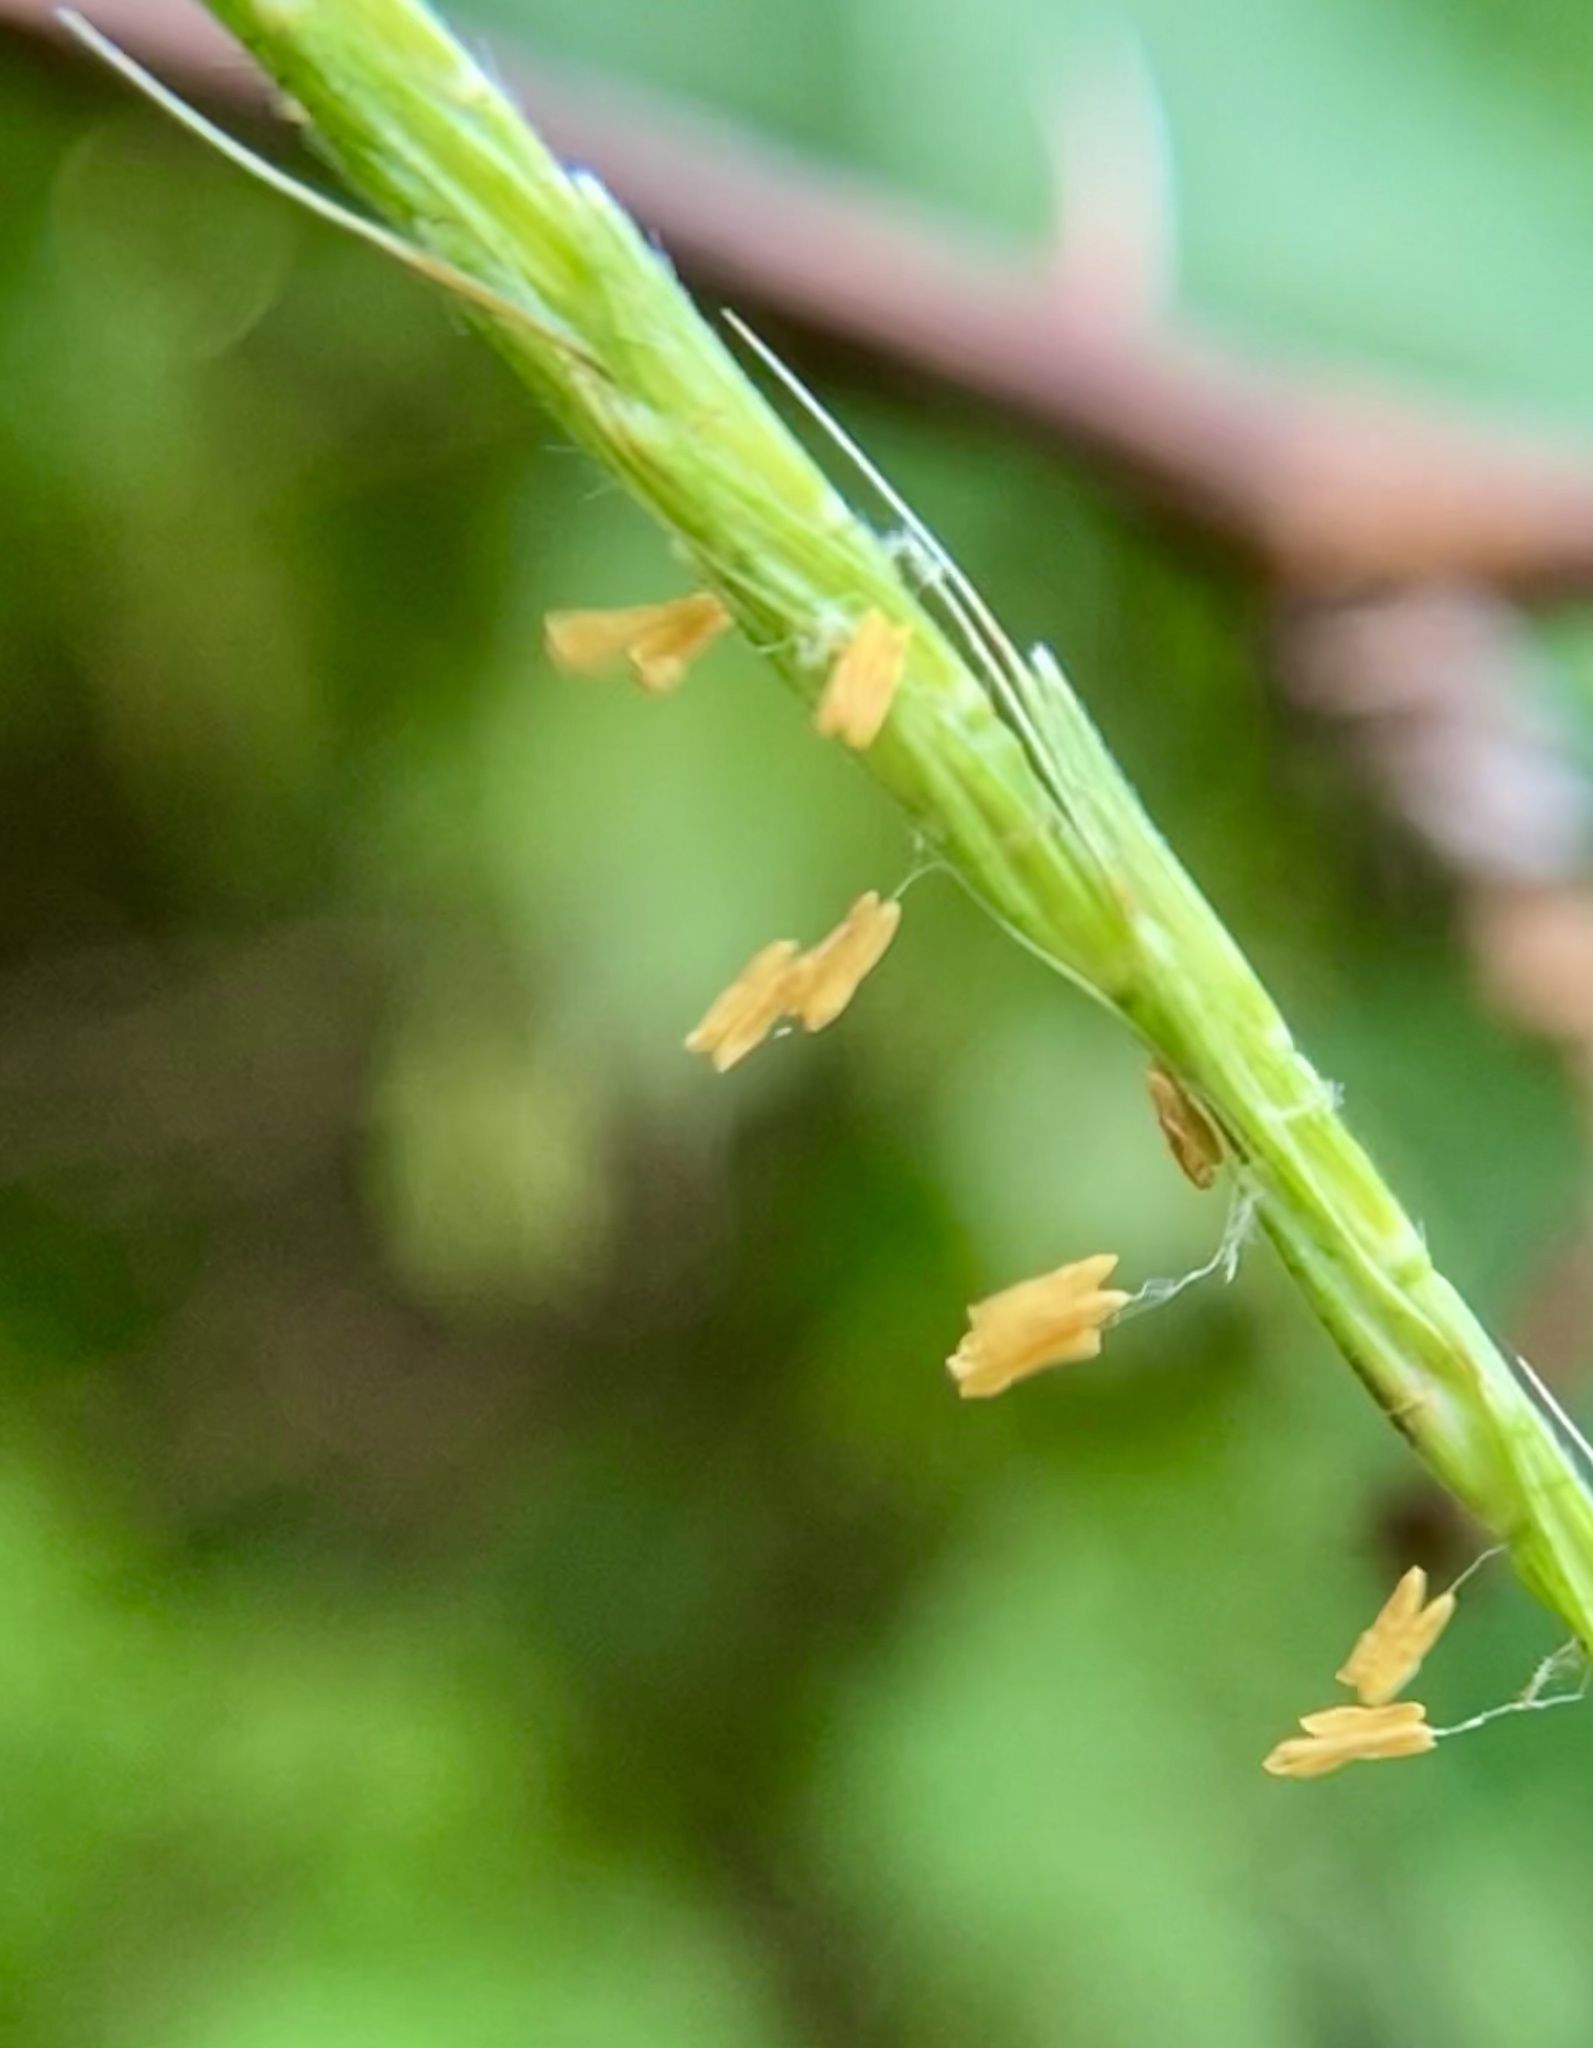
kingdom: Plantae
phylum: Tracheophyta
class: Liliopsida
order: Poales
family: Poaceae
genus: Microstegium
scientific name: Microstegium vimineum
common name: Japanese stiltgrass
